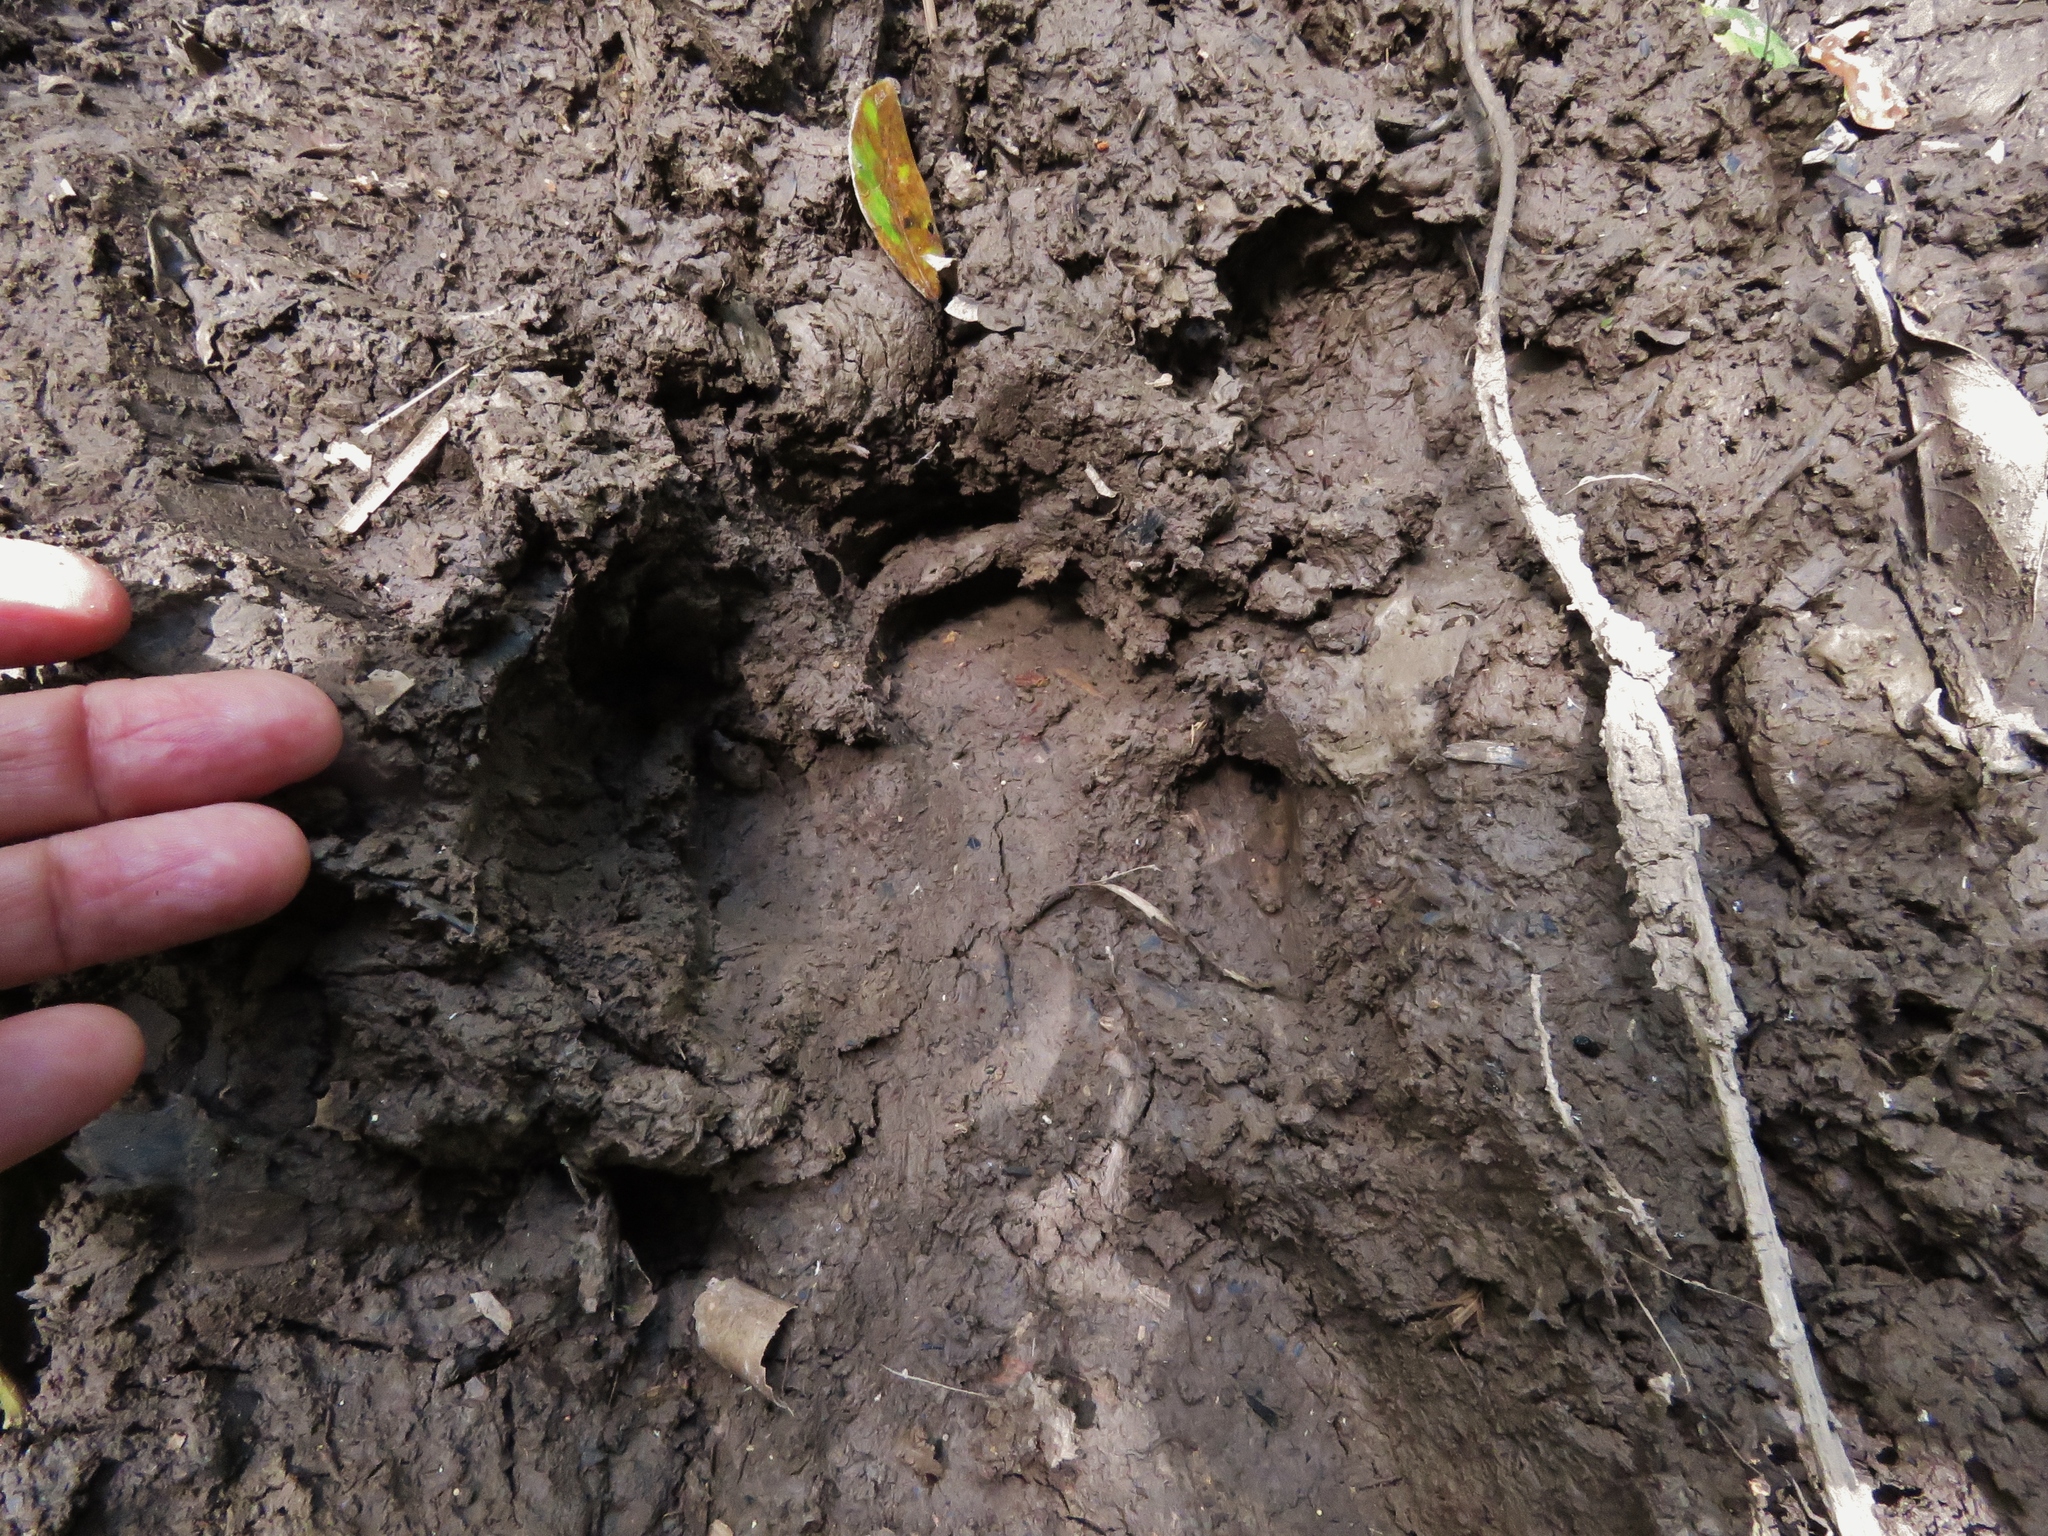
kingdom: Animalia
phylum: Chordata
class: Mammalia
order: Perissodactyla
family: Tapiridae
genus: Tapirus
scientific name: Tapirus terrestris
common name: Brazilian tapir
